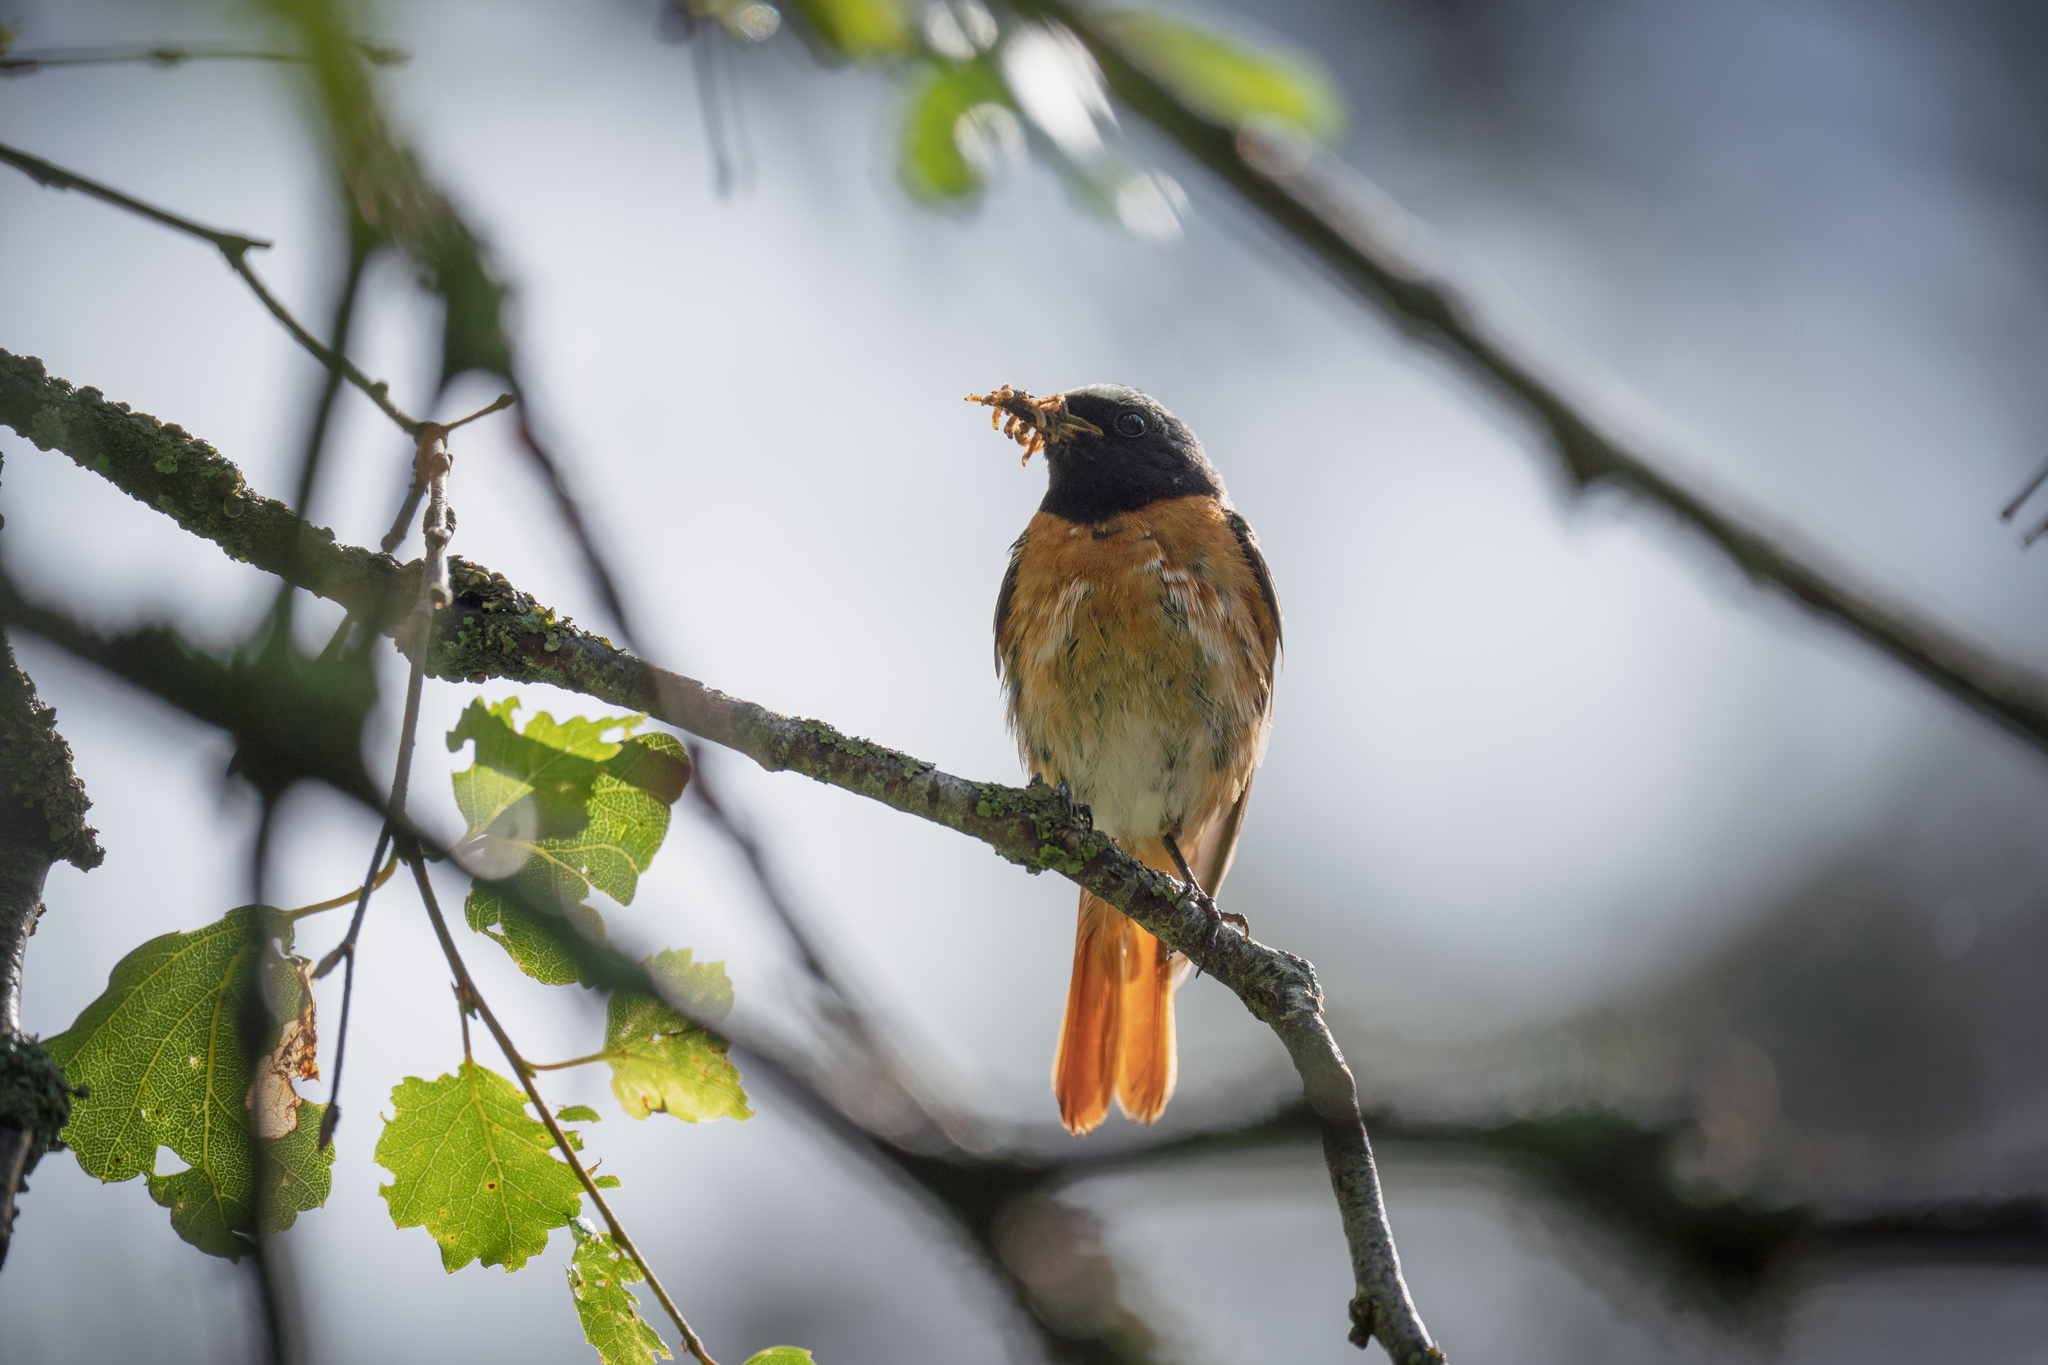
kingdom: Animalia
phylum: Chordata
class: Aves
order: Passeriformes
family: Muscicapidae
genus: Phoenicurus
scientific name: Phoenicurus phoenicurus
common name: Common redstart
